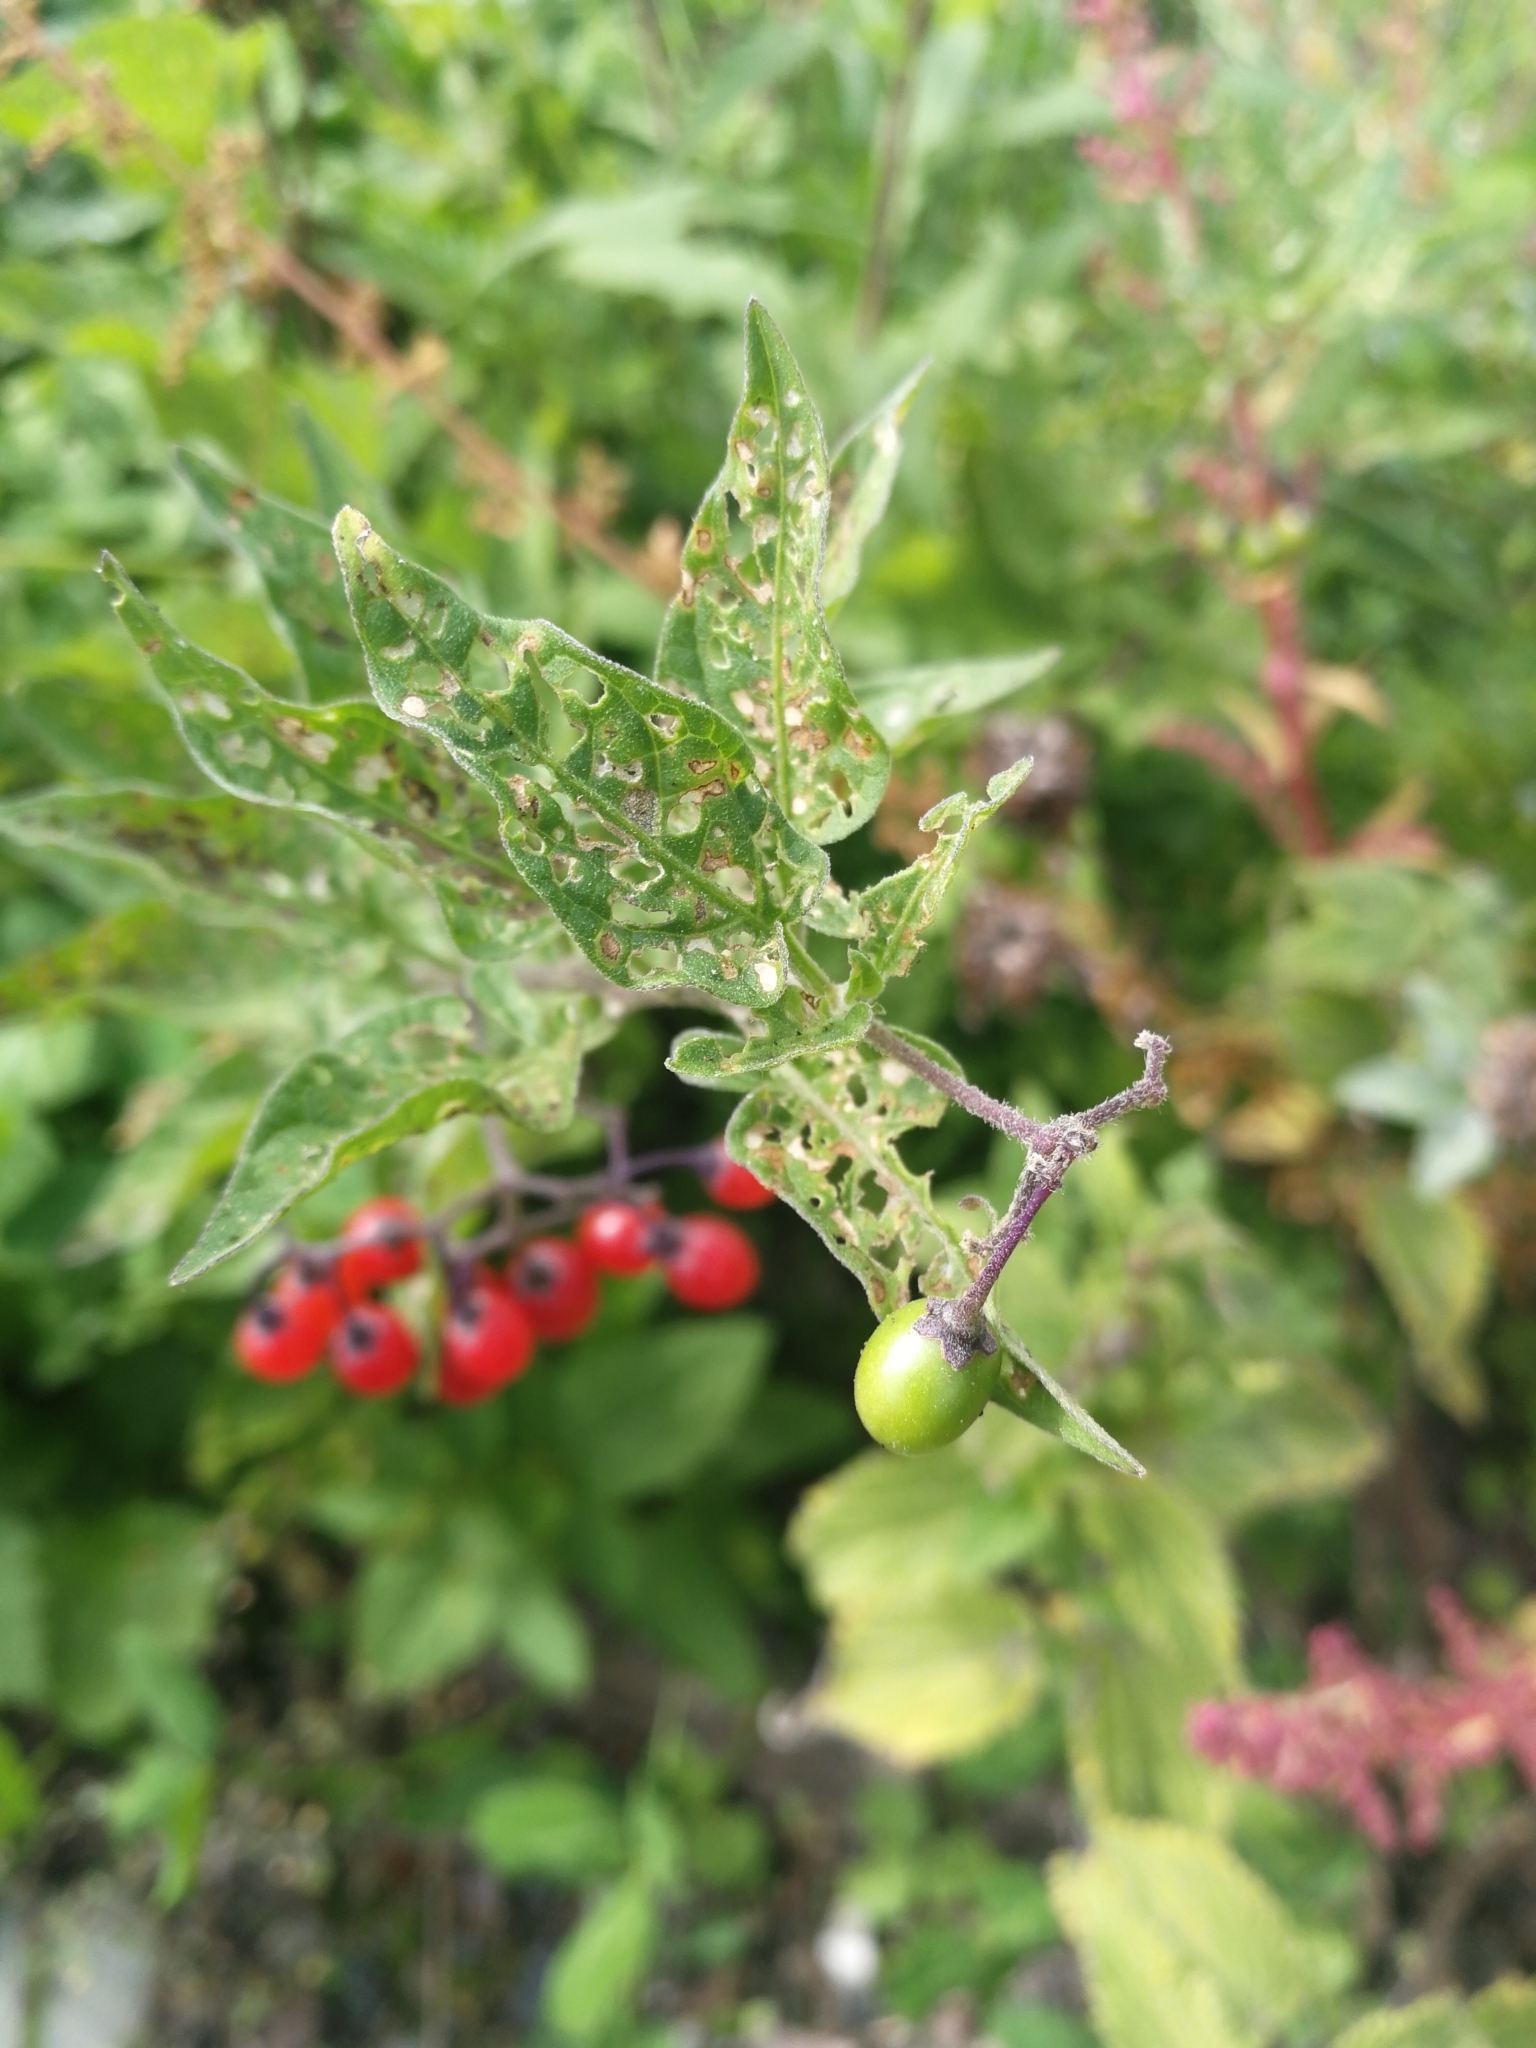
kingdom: Plantae
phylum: Tracheophyta
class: Magnoliopsida
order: Solanales
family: Solanaceae
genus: Solanum
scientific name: Solanum dulcamara
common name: Climbing nightshade
